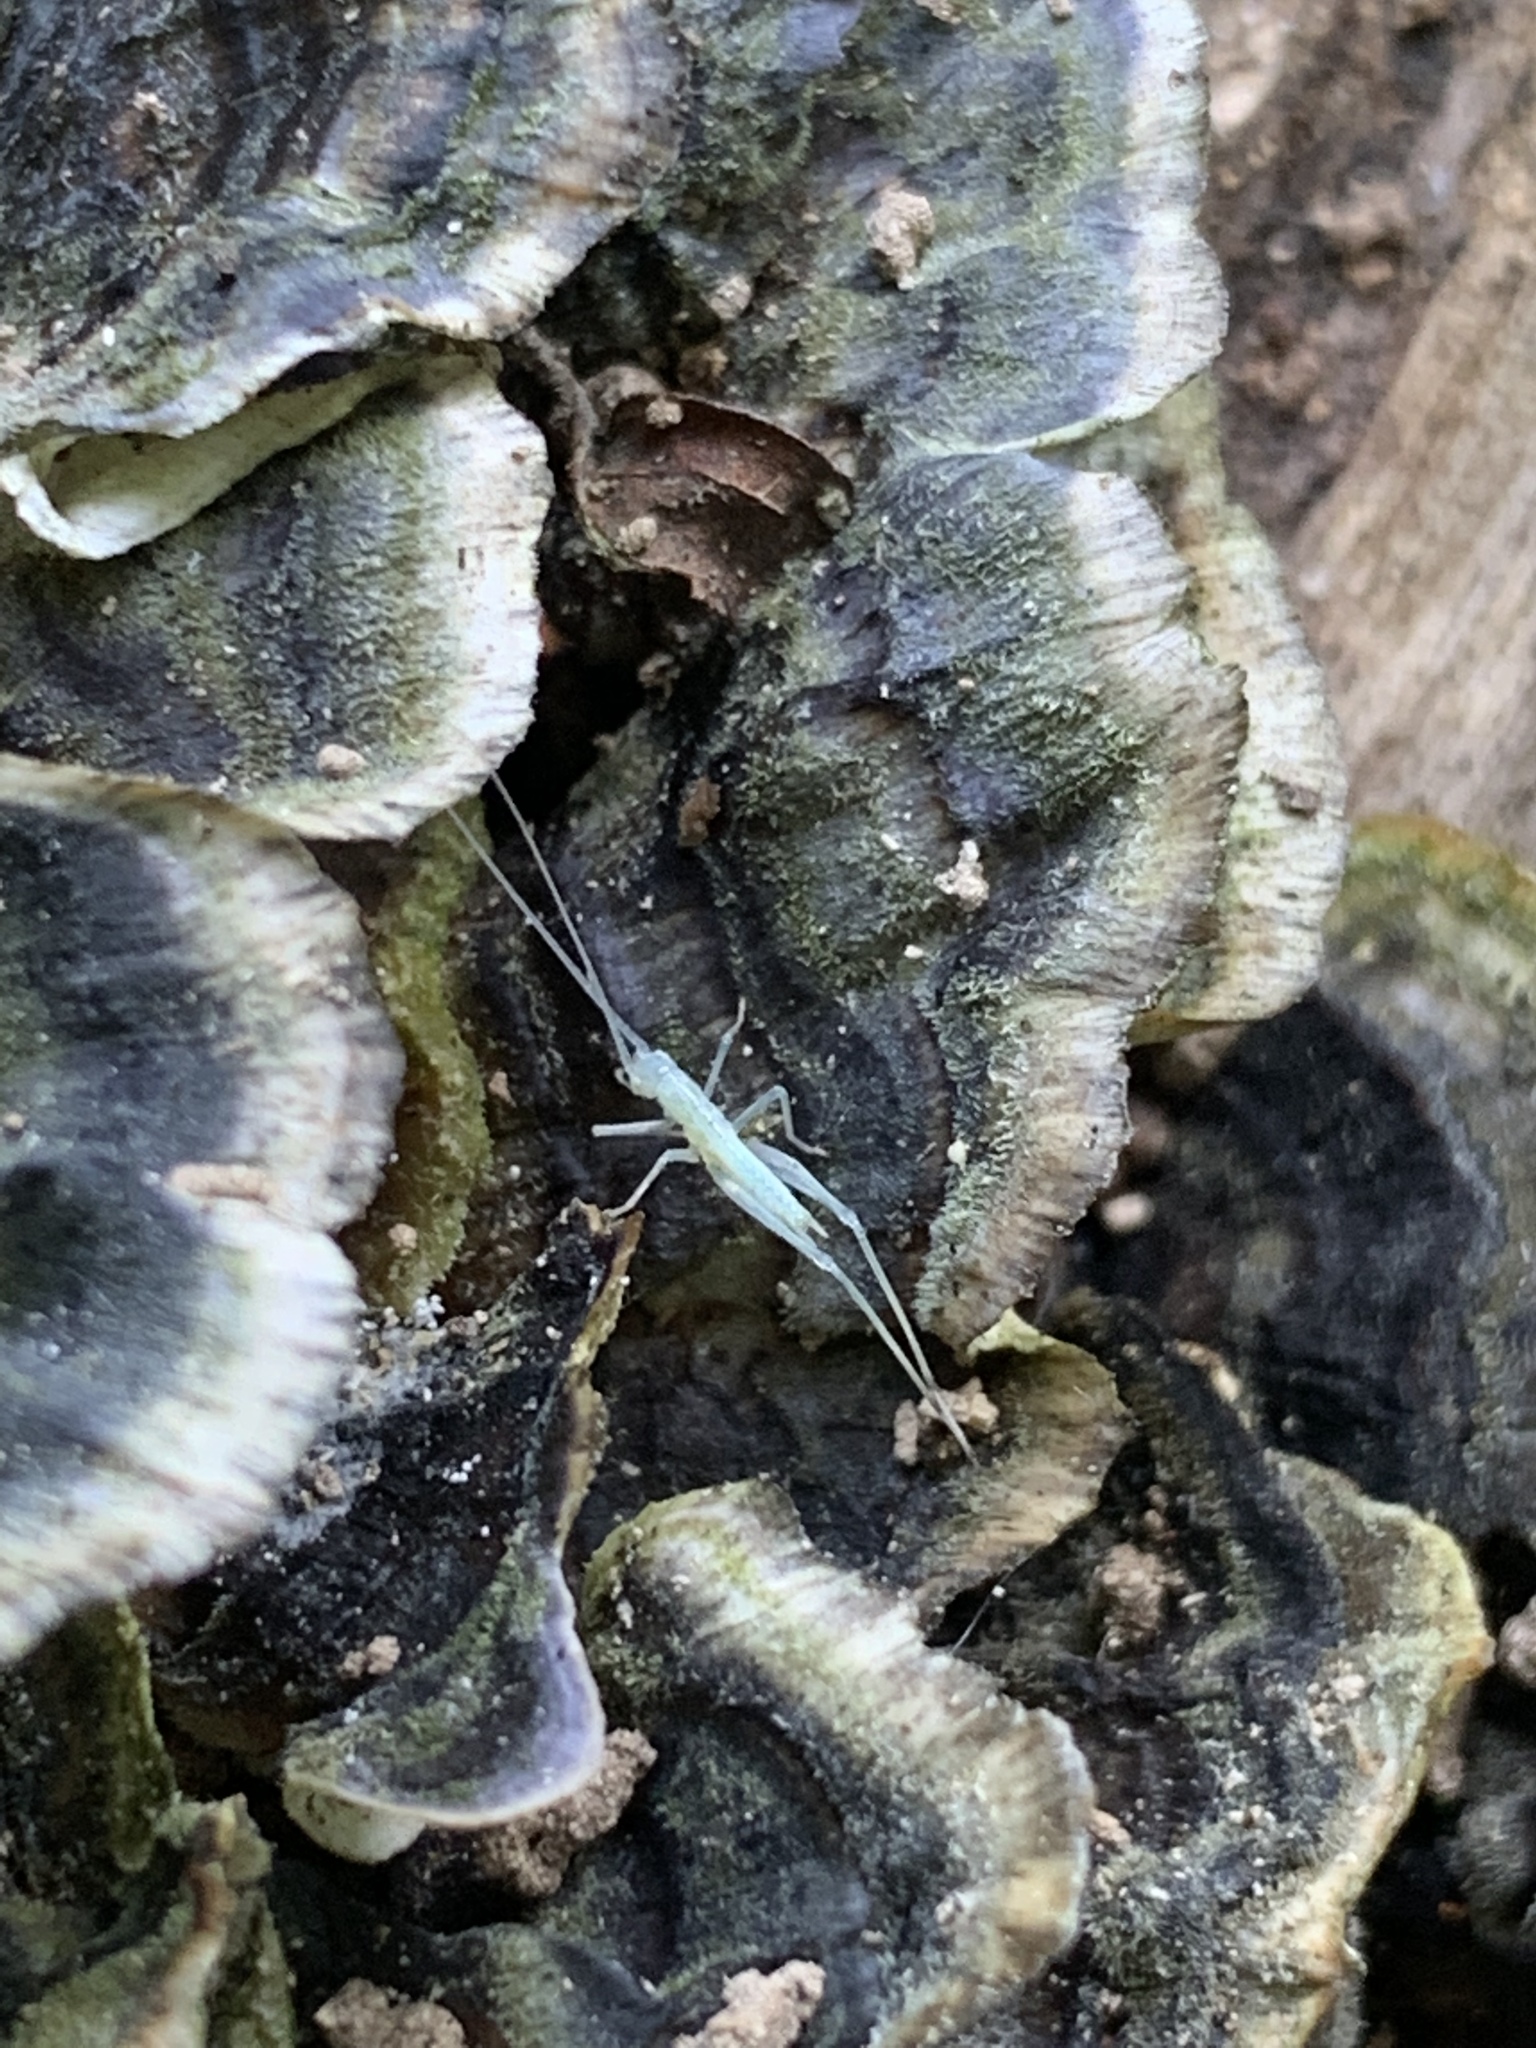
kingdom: Animalia
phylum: Arthropoda
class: Insecta
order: Orthoptera
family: Gryllidae
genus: Oecanthus
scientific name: Oecanthus niveus
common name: Narrow-winged tree cricket
